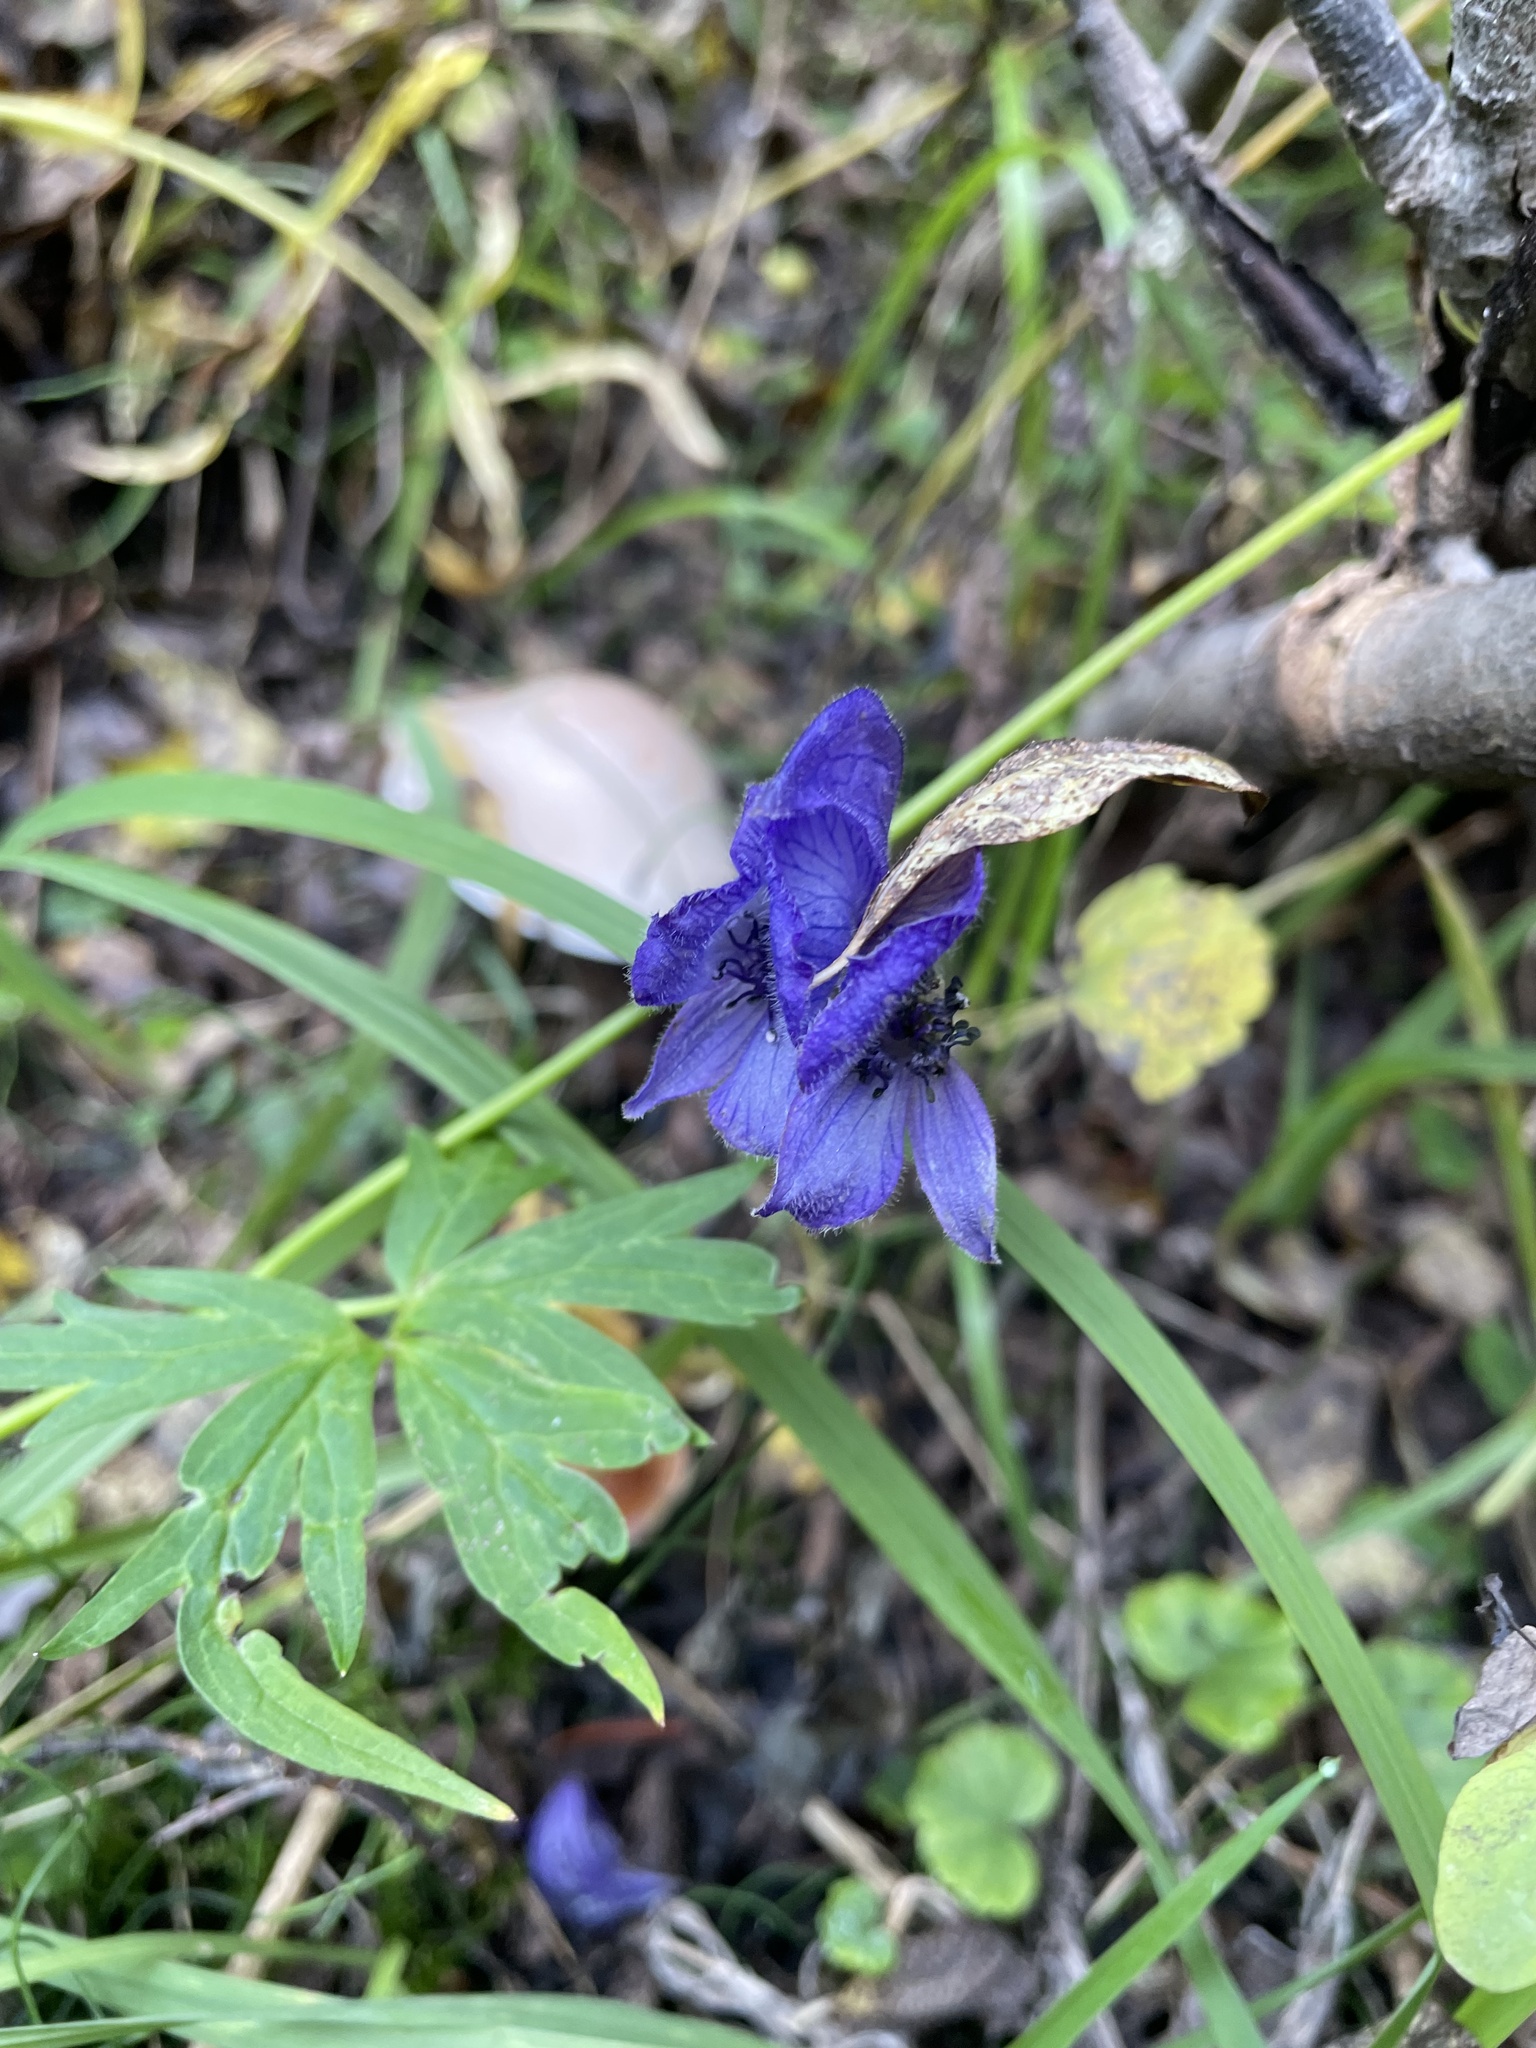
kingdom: Plantae
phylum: Tracheophyta
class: Magnoliopsida
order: Ranunculales
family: Ranunculaceae
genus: Aconitum
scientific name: Aconitum delphiniifolium
